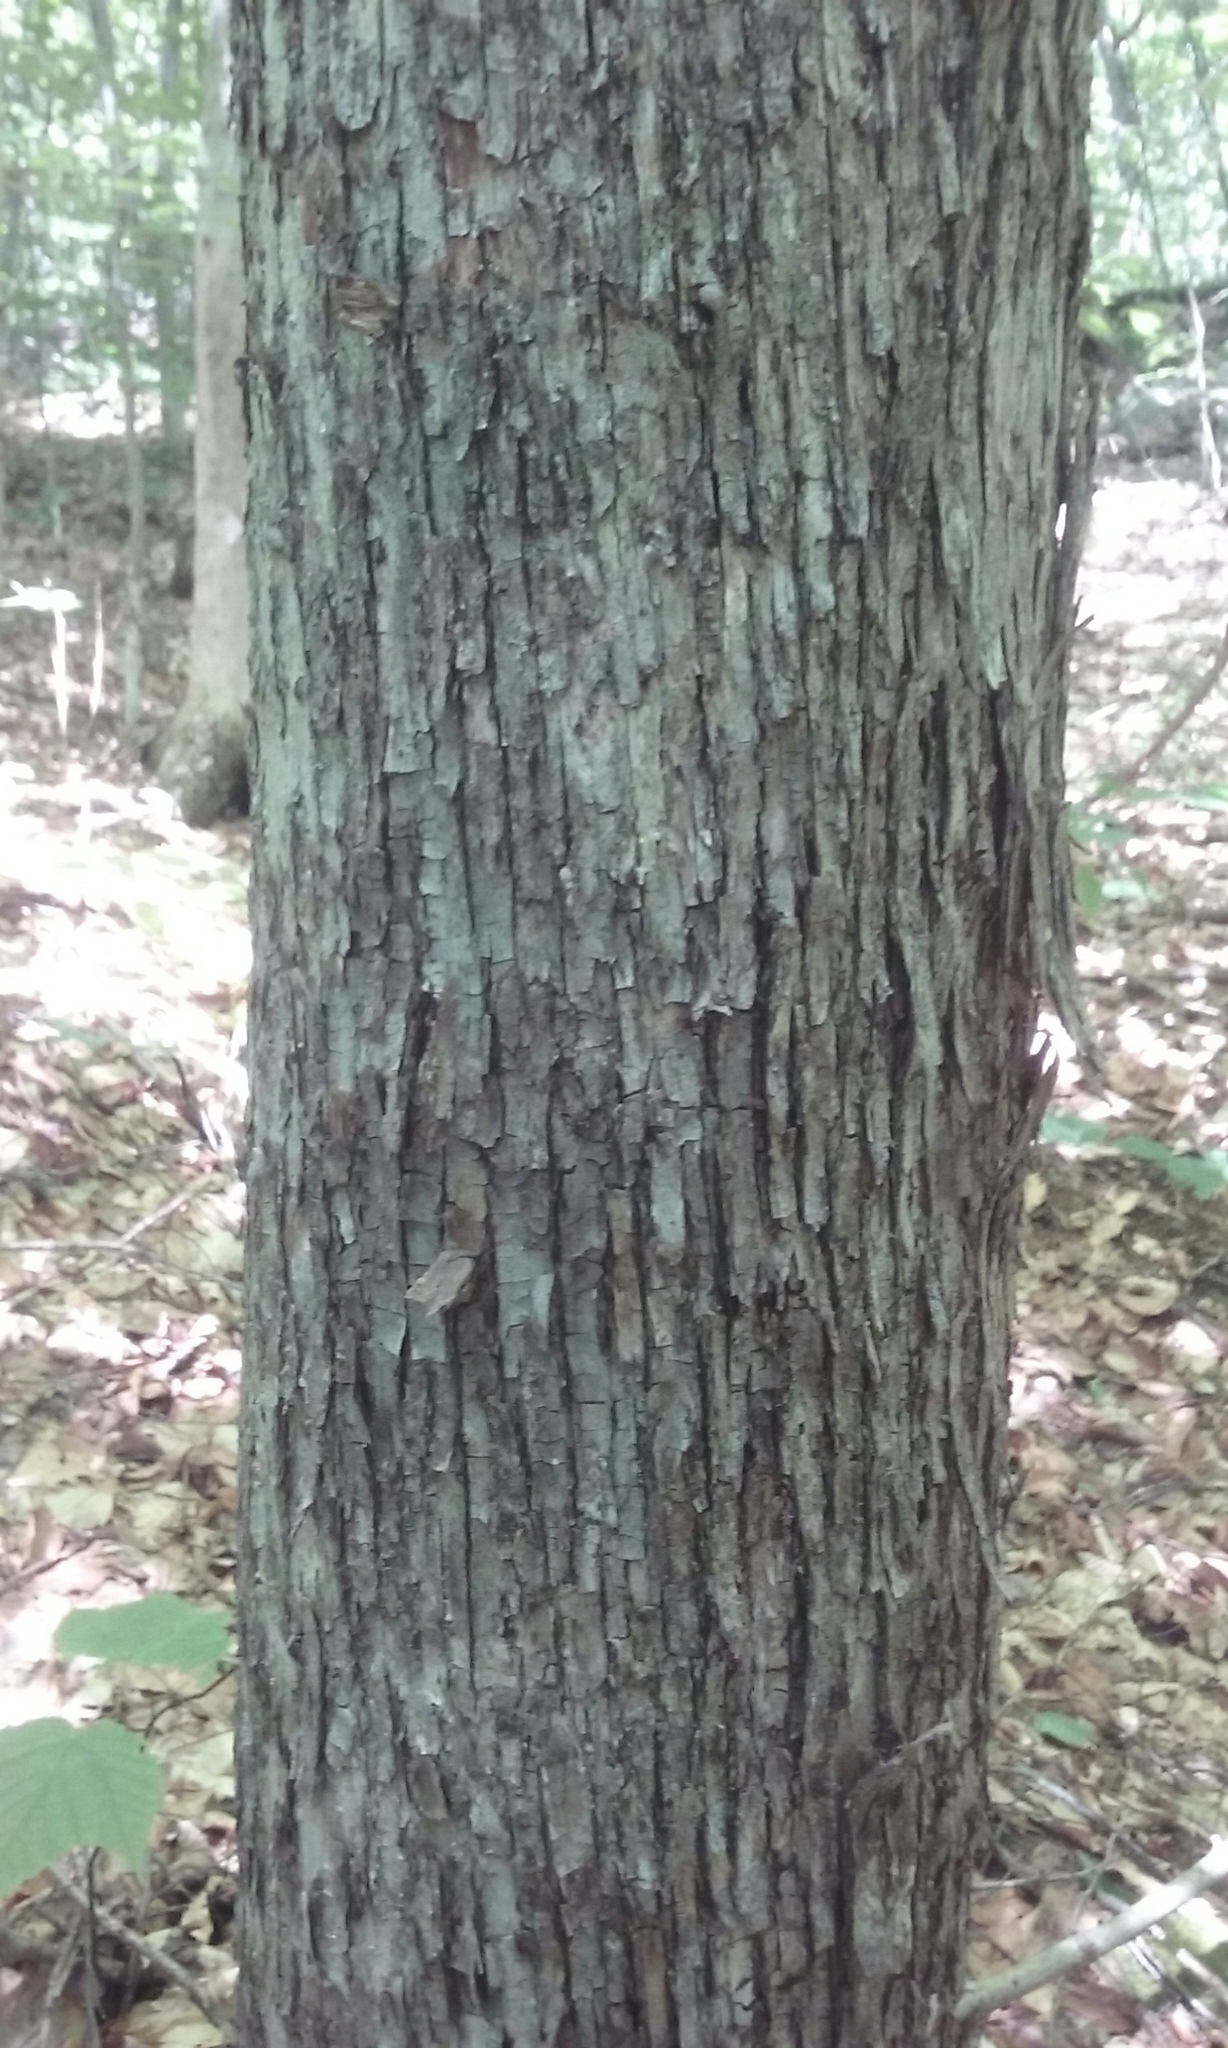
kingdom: Plantae
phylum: Tracheophyta
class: Magnoliopsida
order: Fagales
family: Betulaceae
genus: Ostrya
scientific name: Ostrya virginiana
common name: Ironwood
